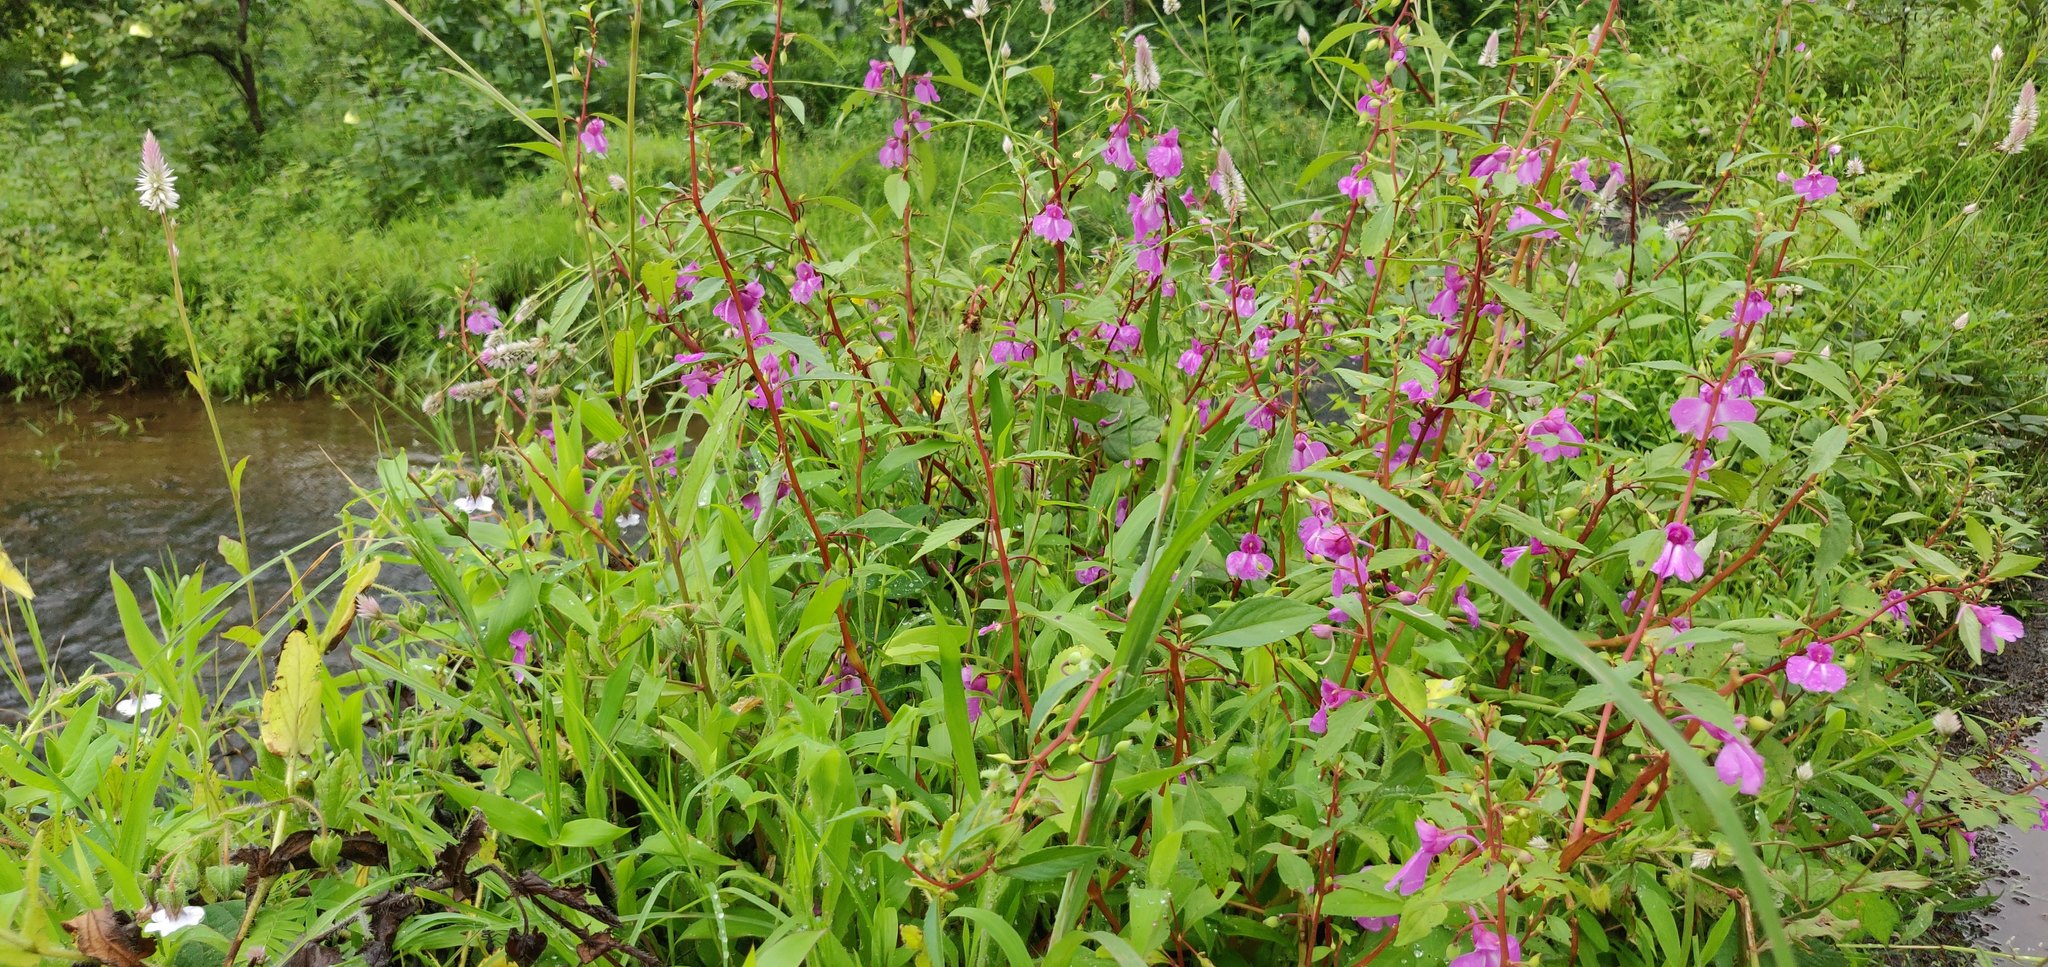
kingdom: Plantae
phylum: Tracheophyta
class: Magnoliopsida
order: Ericales
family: Balsaminaceae
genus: Impatiens
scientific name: Impatiens balsamina
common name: Balsam
